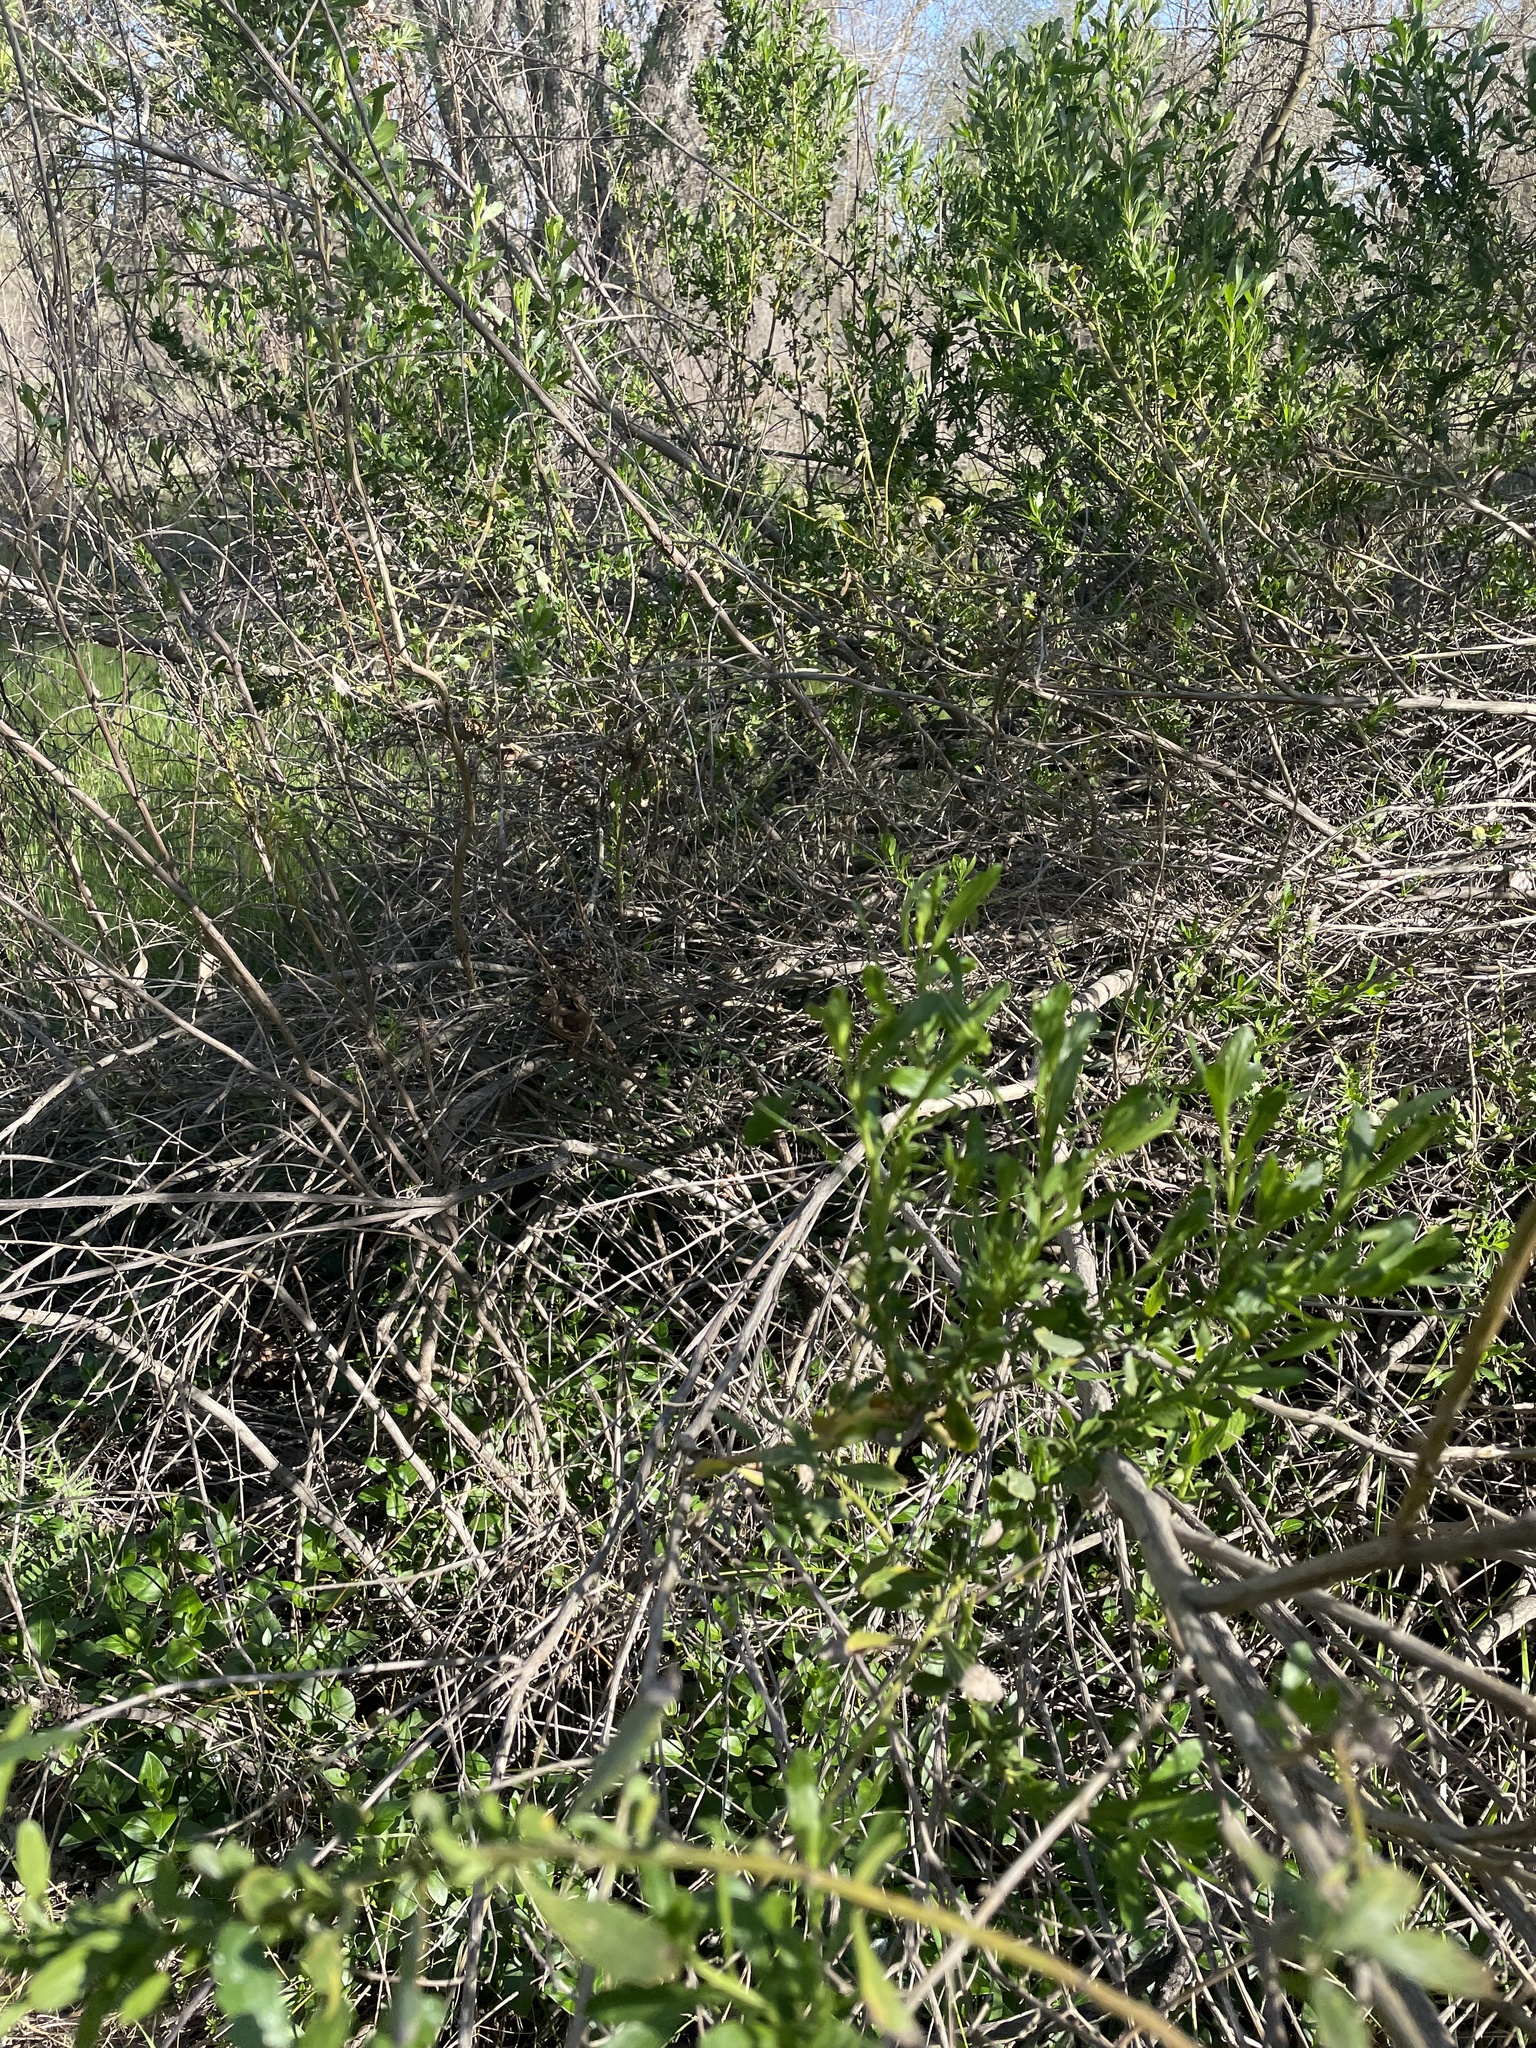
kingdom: Plantae
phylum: Tracheophyta
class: Magnoliopsida
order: Asterales
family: Asteraceae
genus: Baccharis
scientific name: Baccharis pilularis
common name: Coyotebrush
